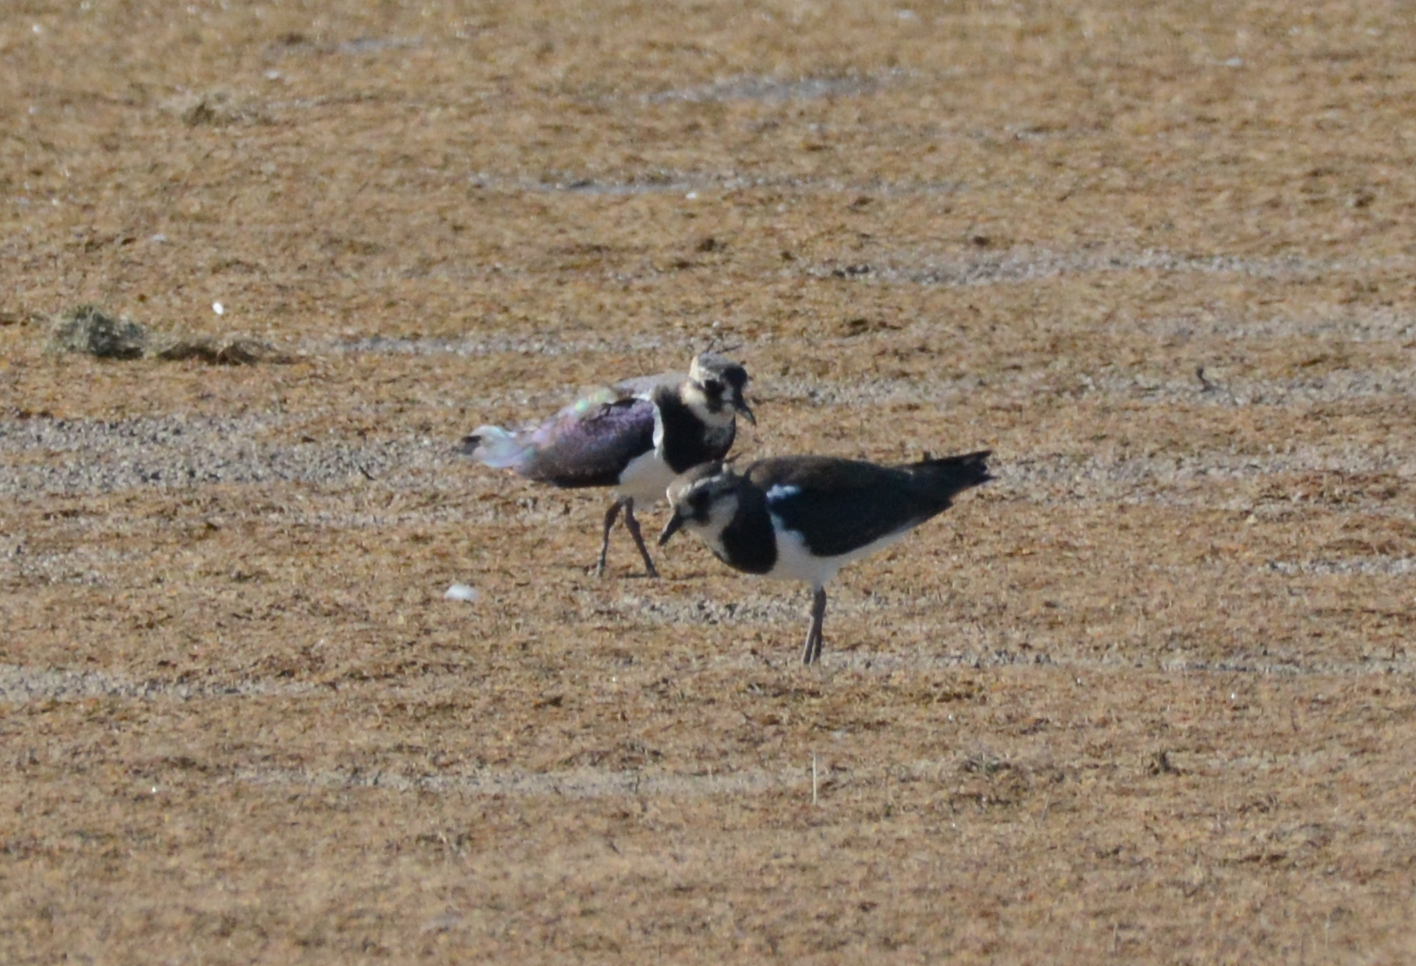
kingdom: Animalia
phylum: Chordata
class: Aves
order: Charadriiformes
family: Charadriidae
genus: Vanellus
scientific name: Vanellus vanellus
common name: Northern lapwing
